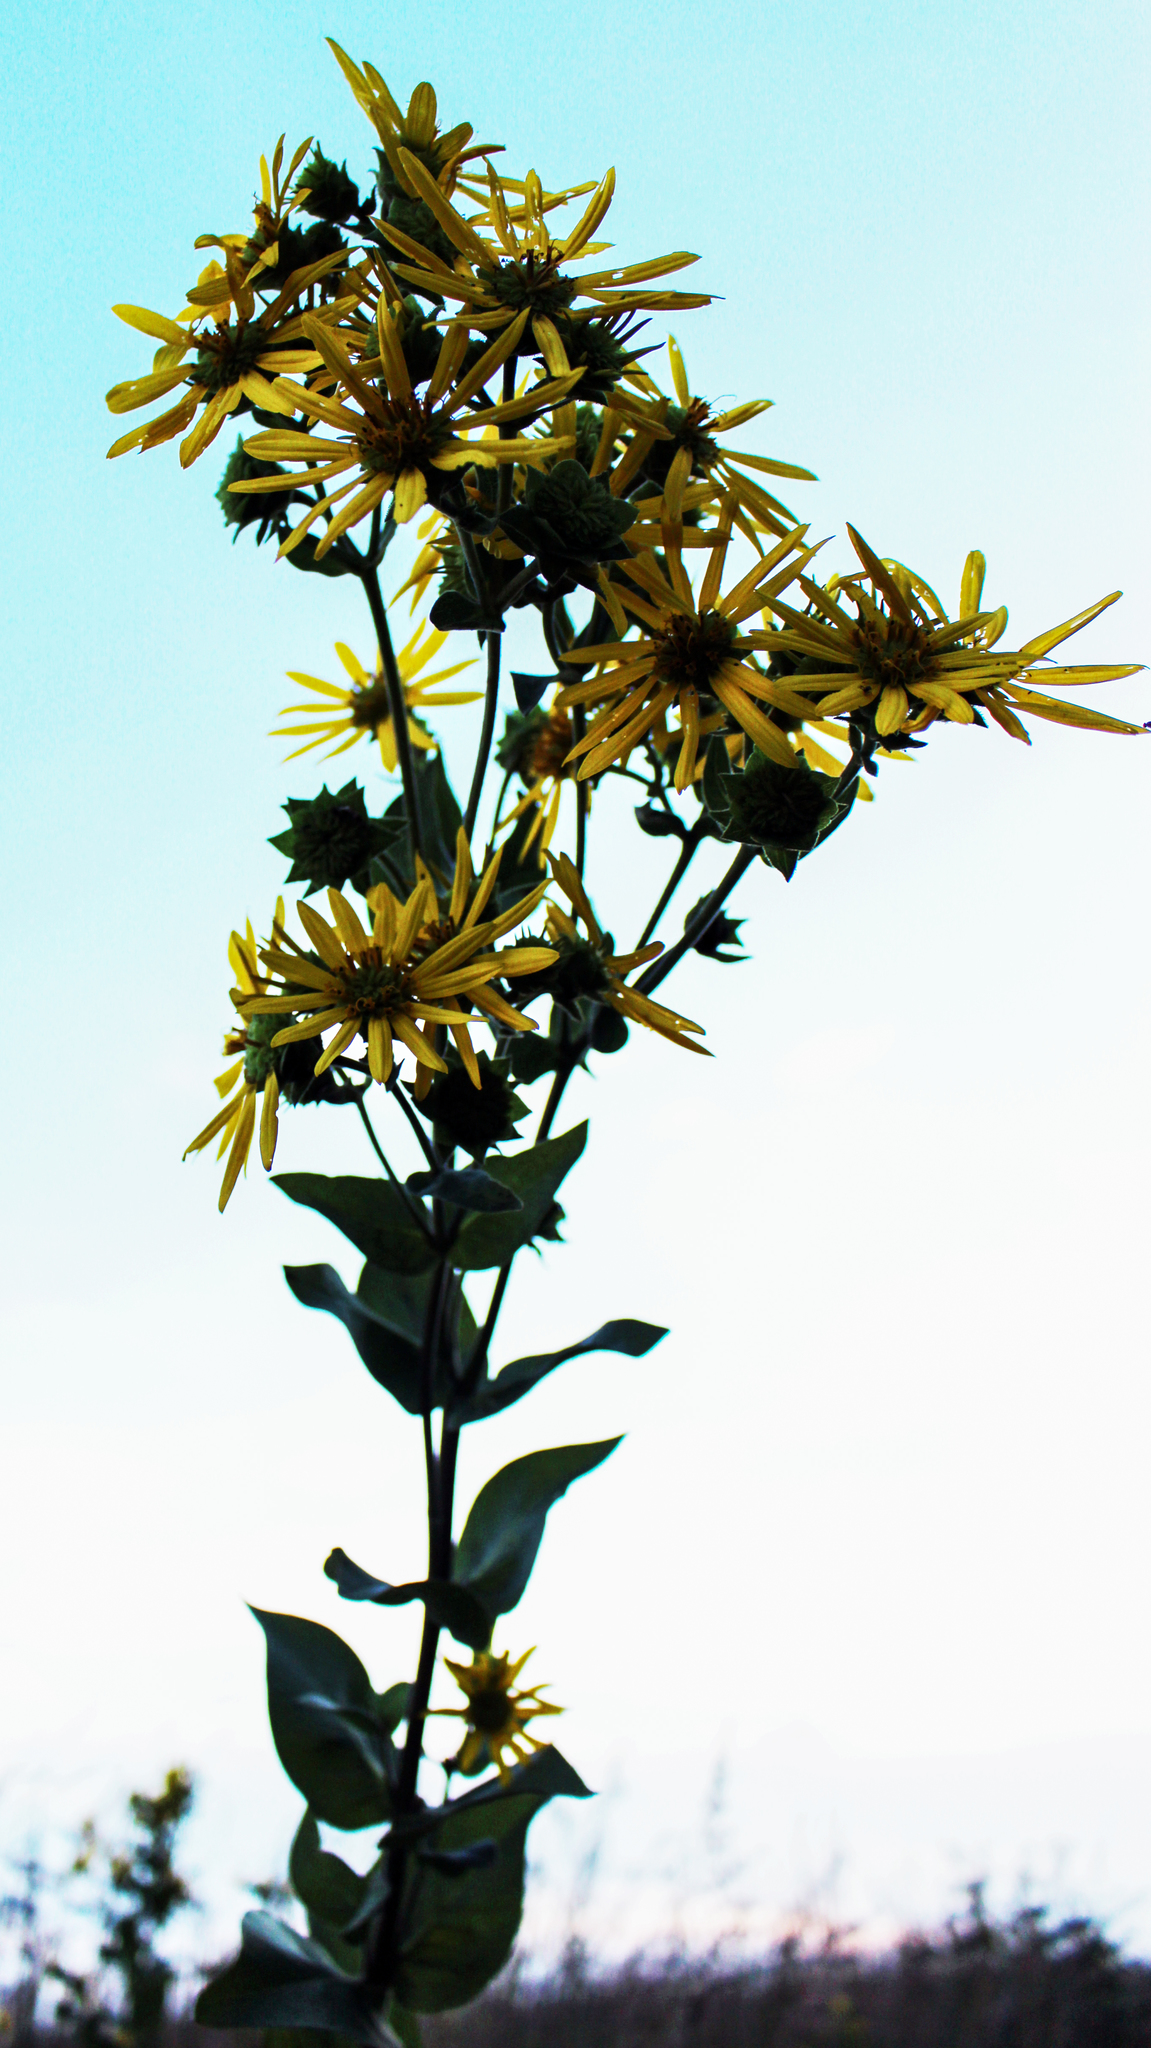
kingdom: Plantae
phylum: Tracheophyta
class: Magnoliopsida
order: Asterales
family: Asteraceae
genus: Silphium
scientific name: Silphium integrifolium
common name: Whole-leaf rosinweed
